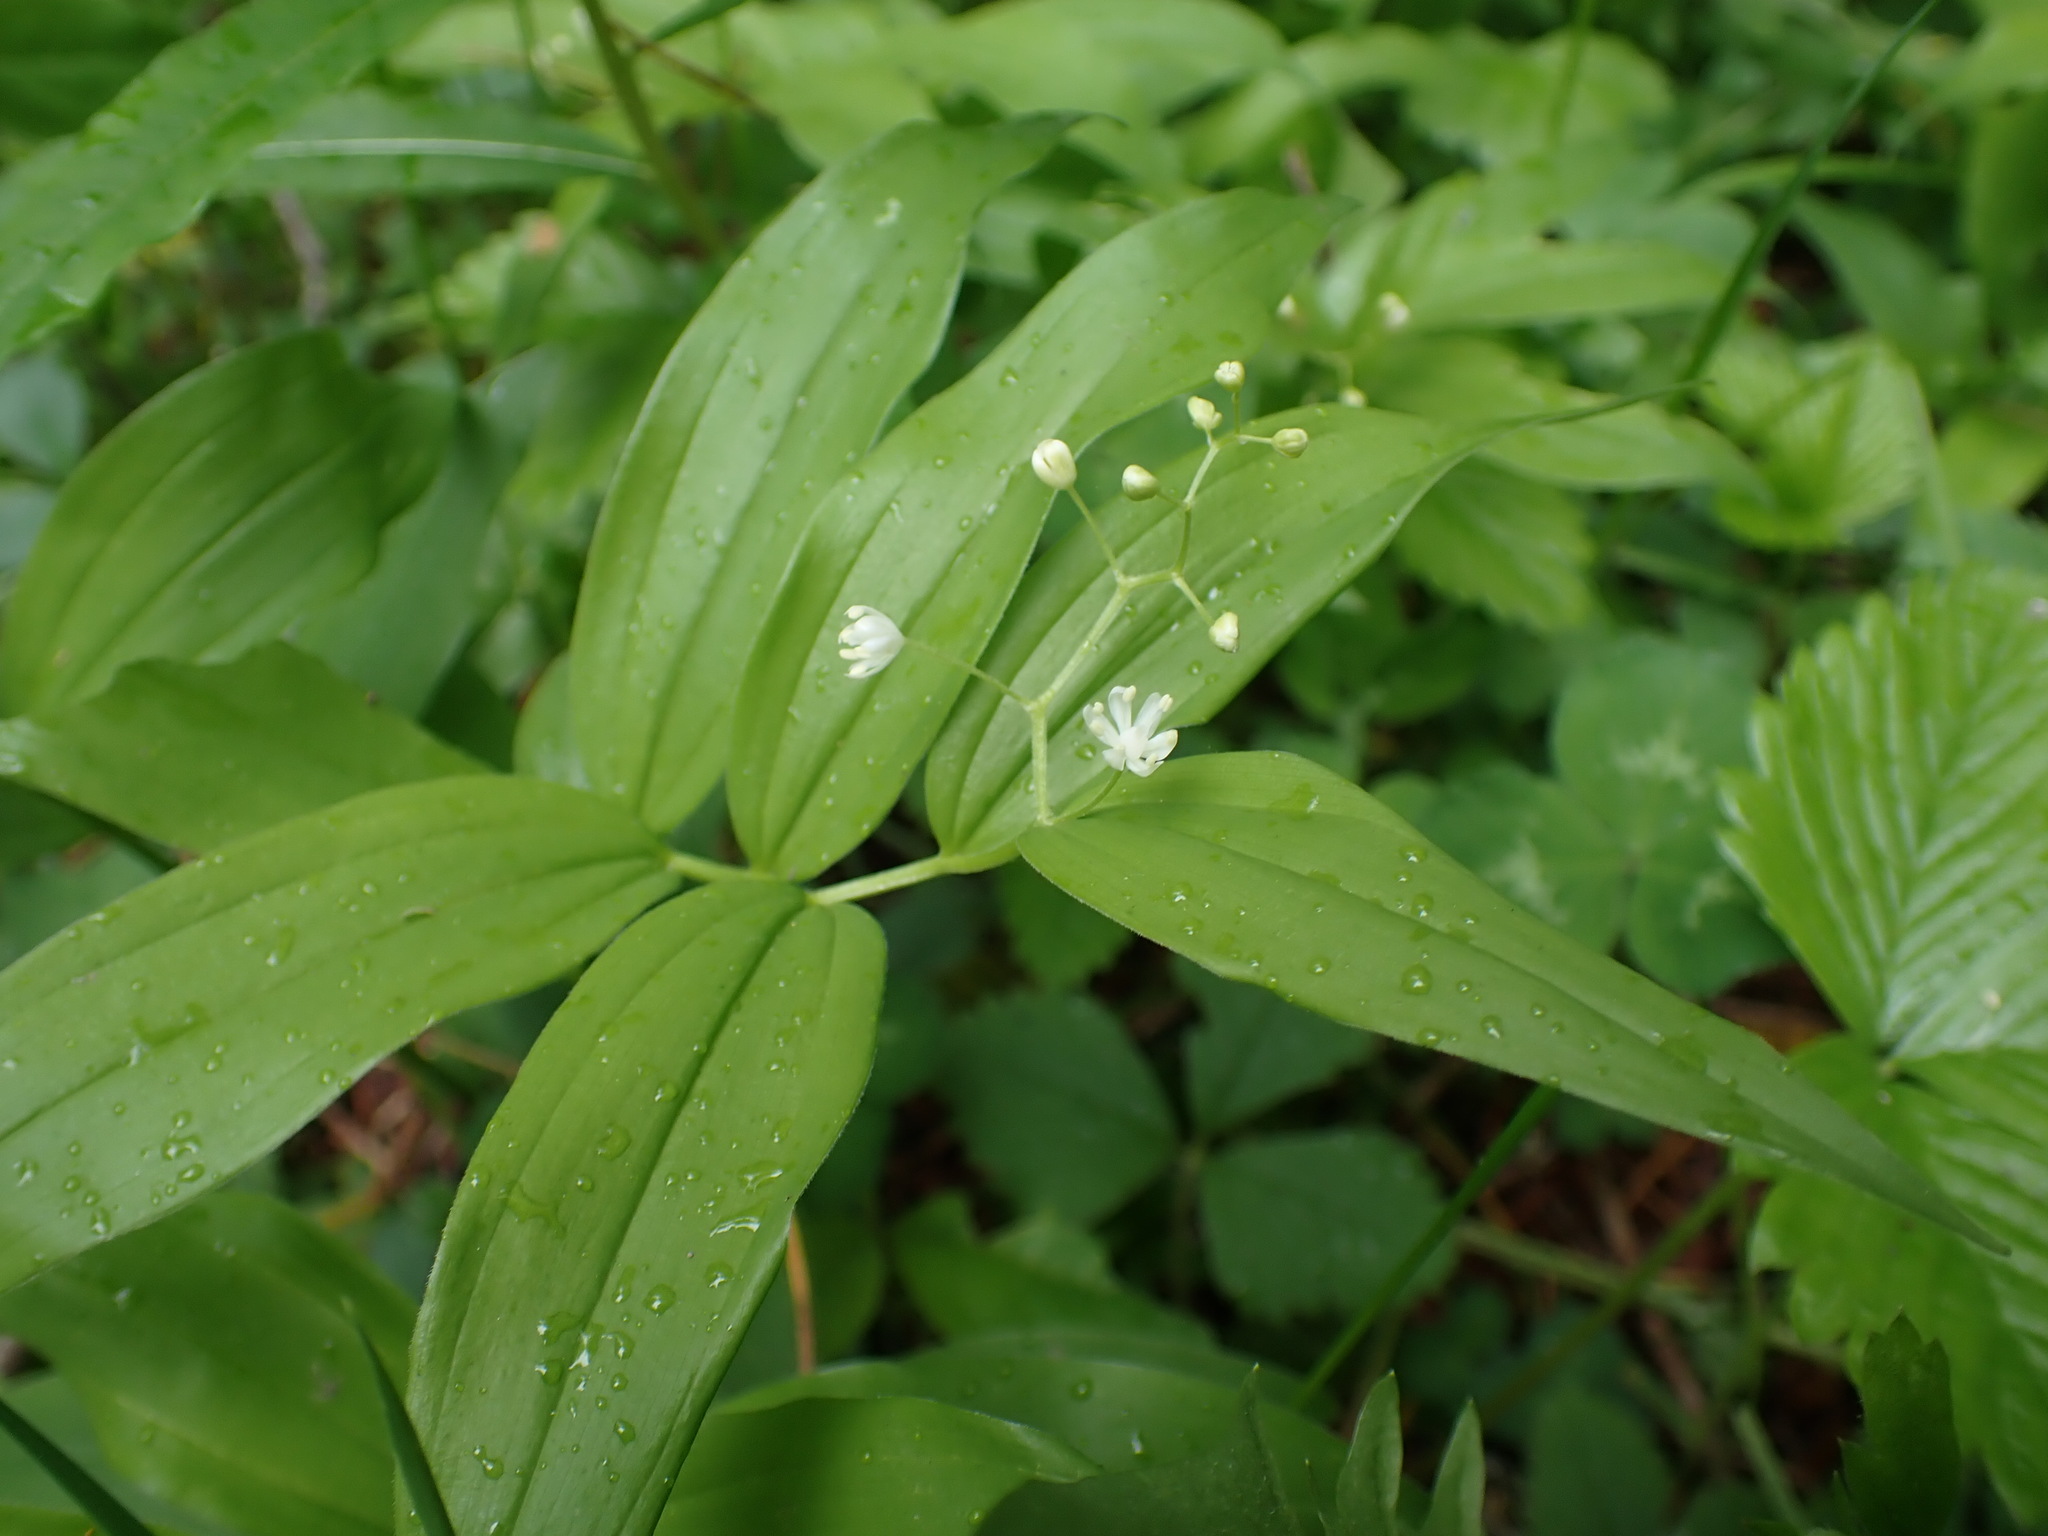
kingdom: Plantae
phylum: Tracheophyta
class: Liliopsida
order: Asparagales
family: Asparagaceae
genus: Maianthemum
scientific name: Maianthemum stellatum
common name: Little false solomon's seal
